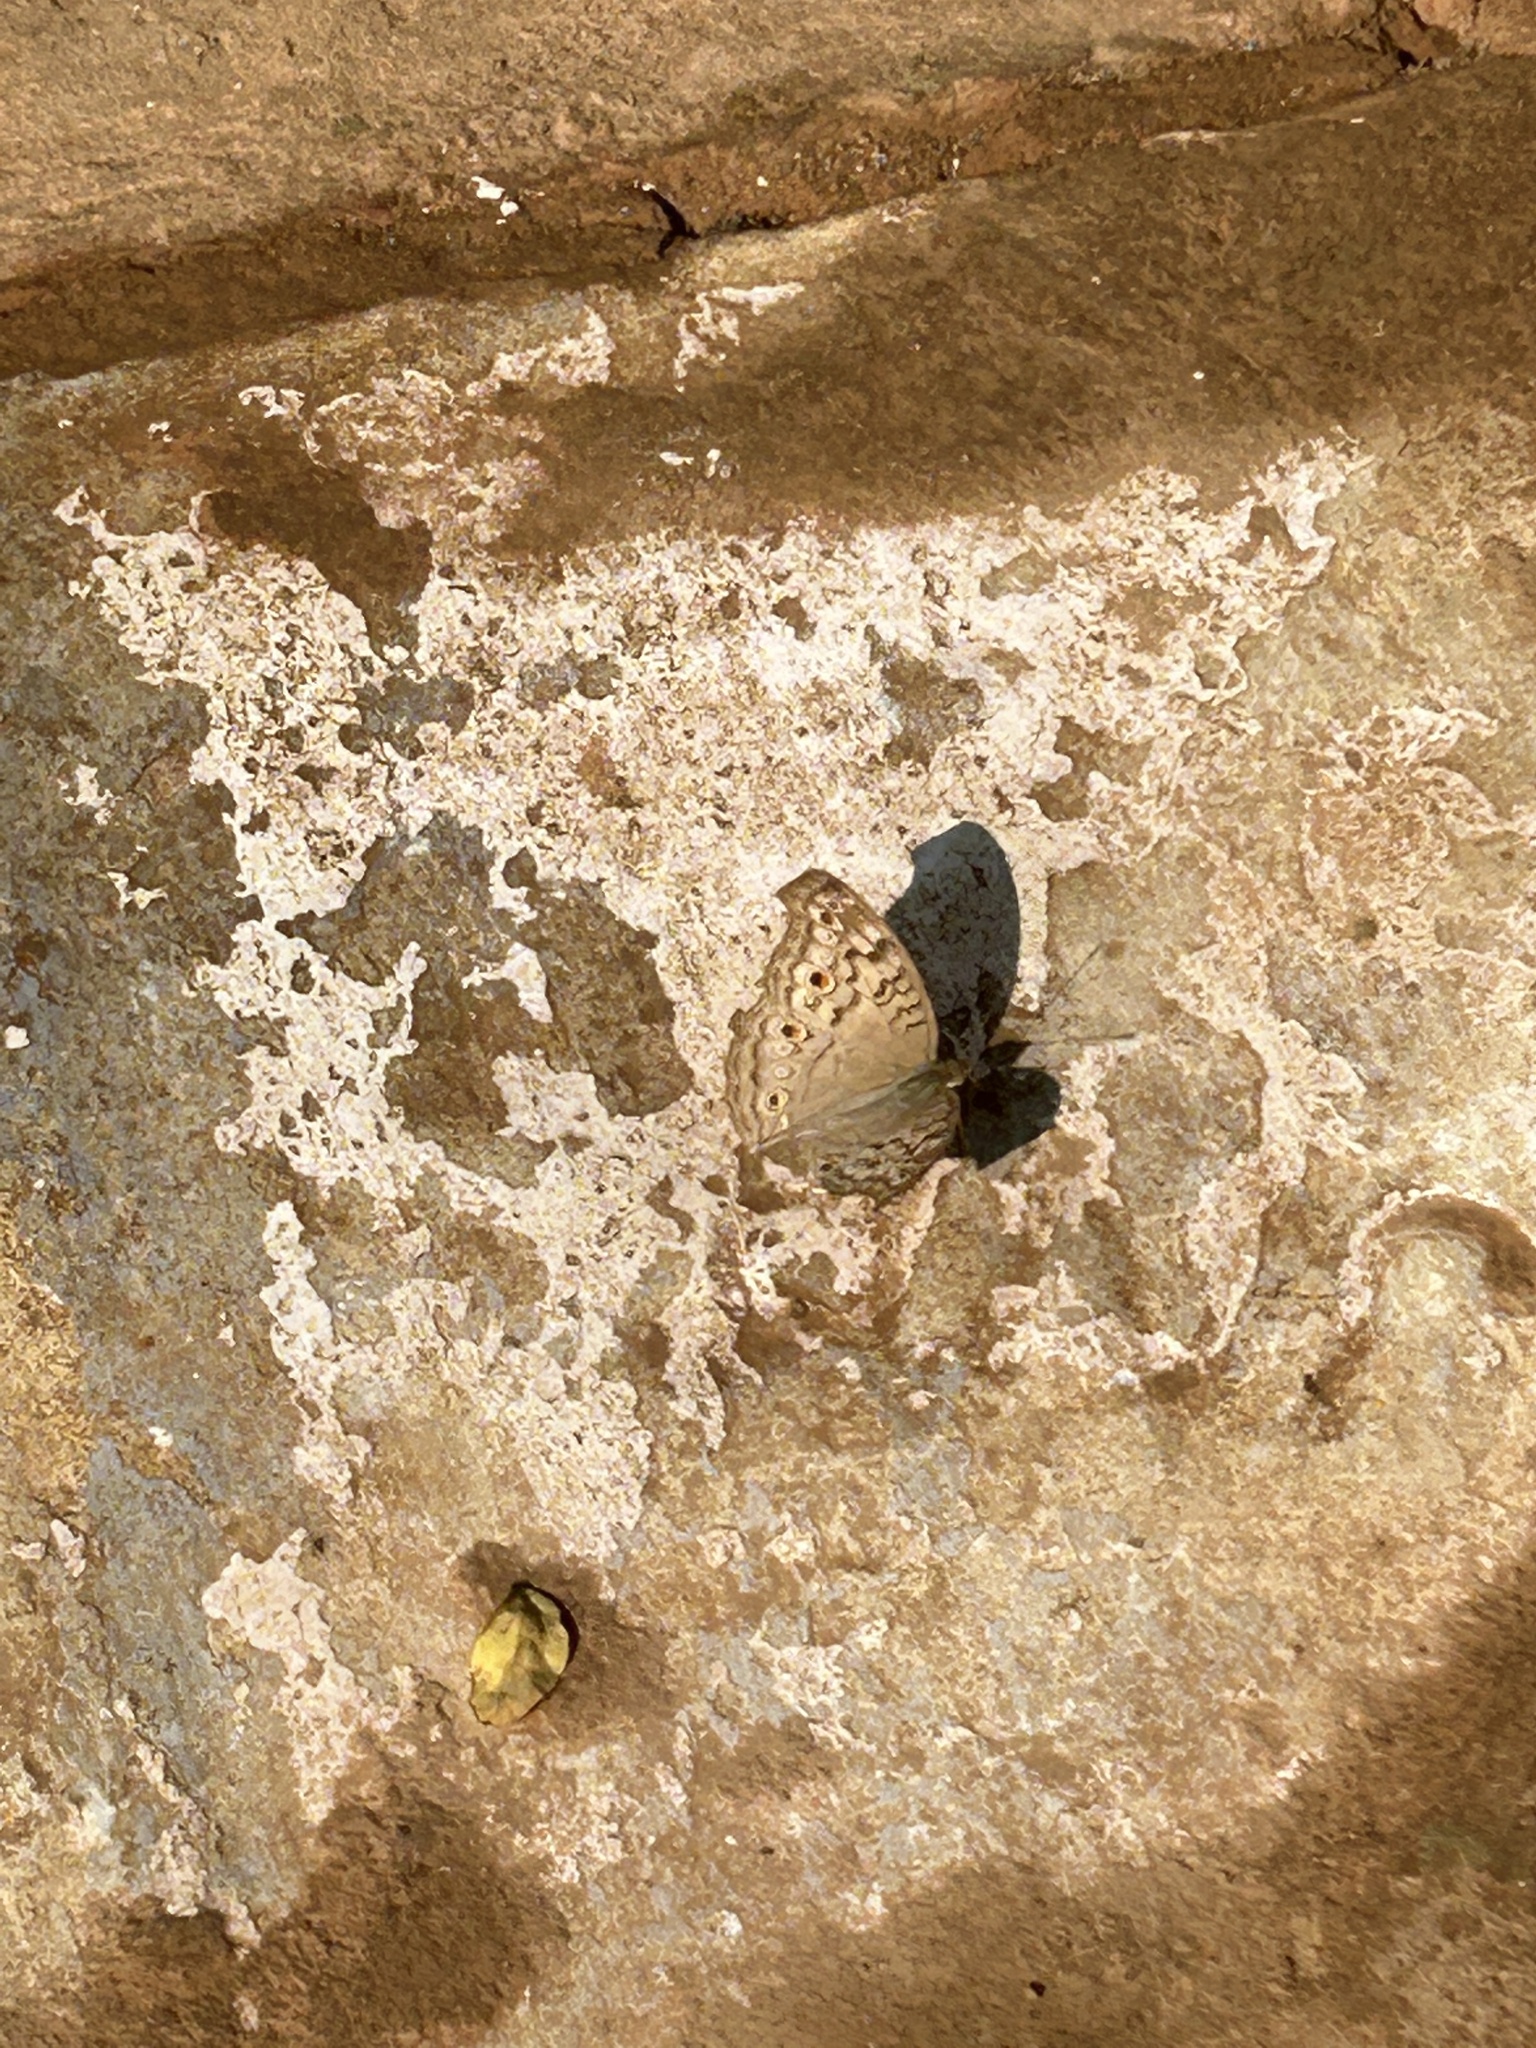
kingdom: Animalia
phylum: Arthropoda
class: Insecta
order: Lepidoptera
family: Nymphalidae
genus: Junonia
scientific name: Junonia atlites
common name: Grey pansy
